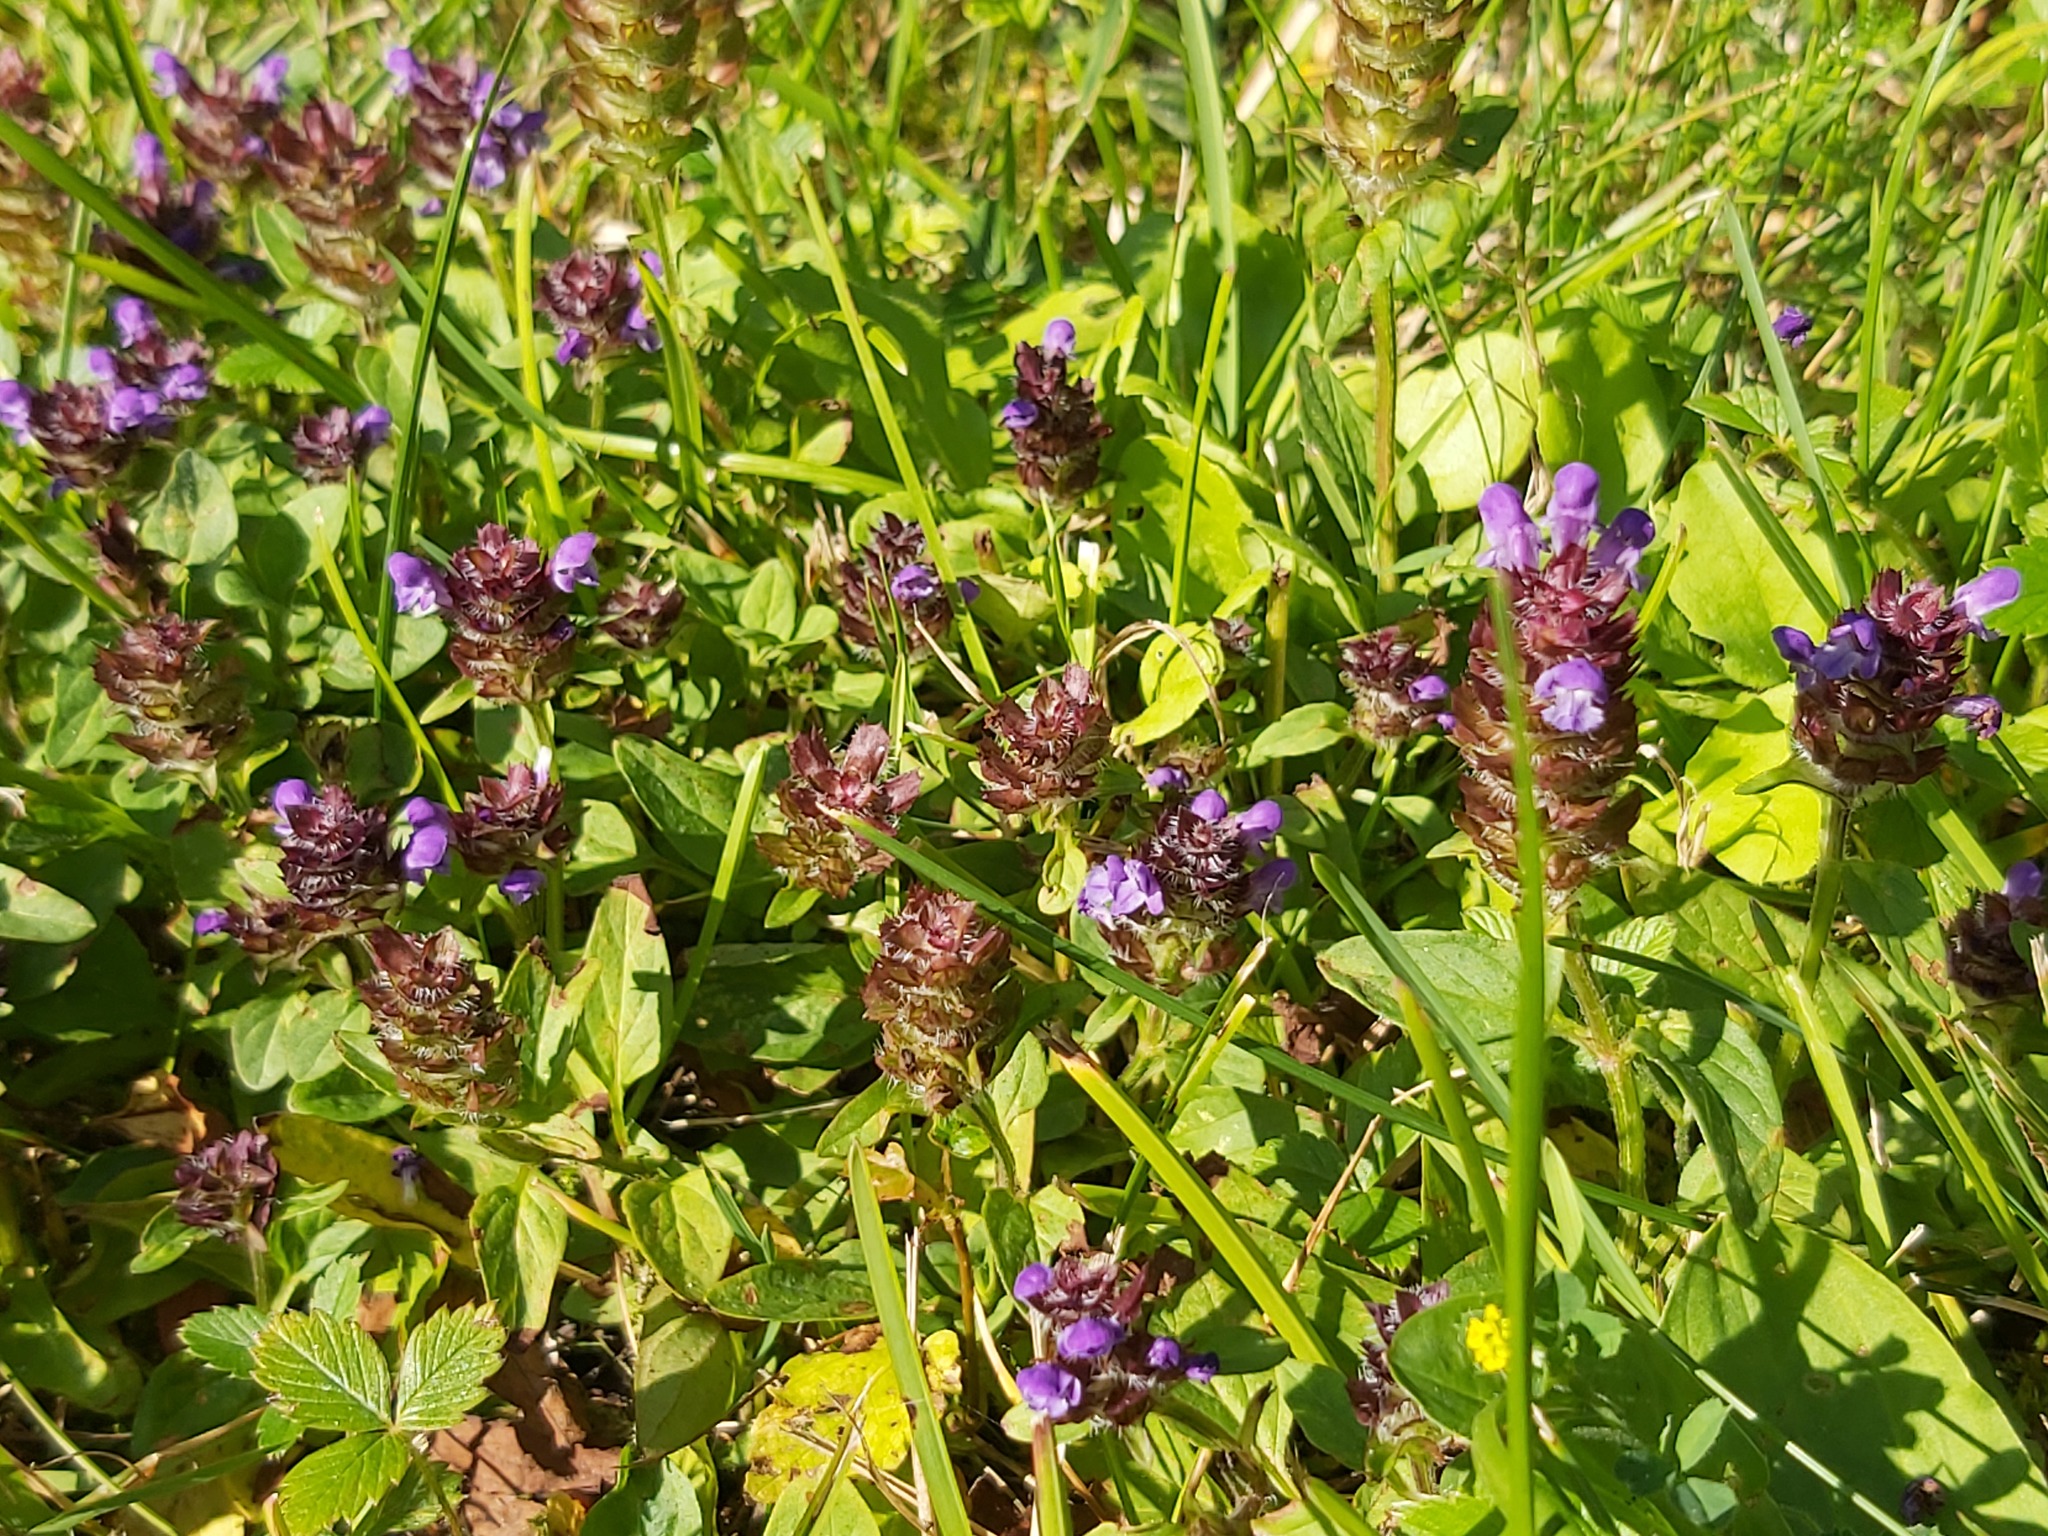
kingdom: Plantae
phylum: Tracheophyta
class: Magnoliopsida
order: Lamiales
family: Lamiaceae
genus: Prunella
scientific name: Prunella vulgaris
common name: Heal-all
